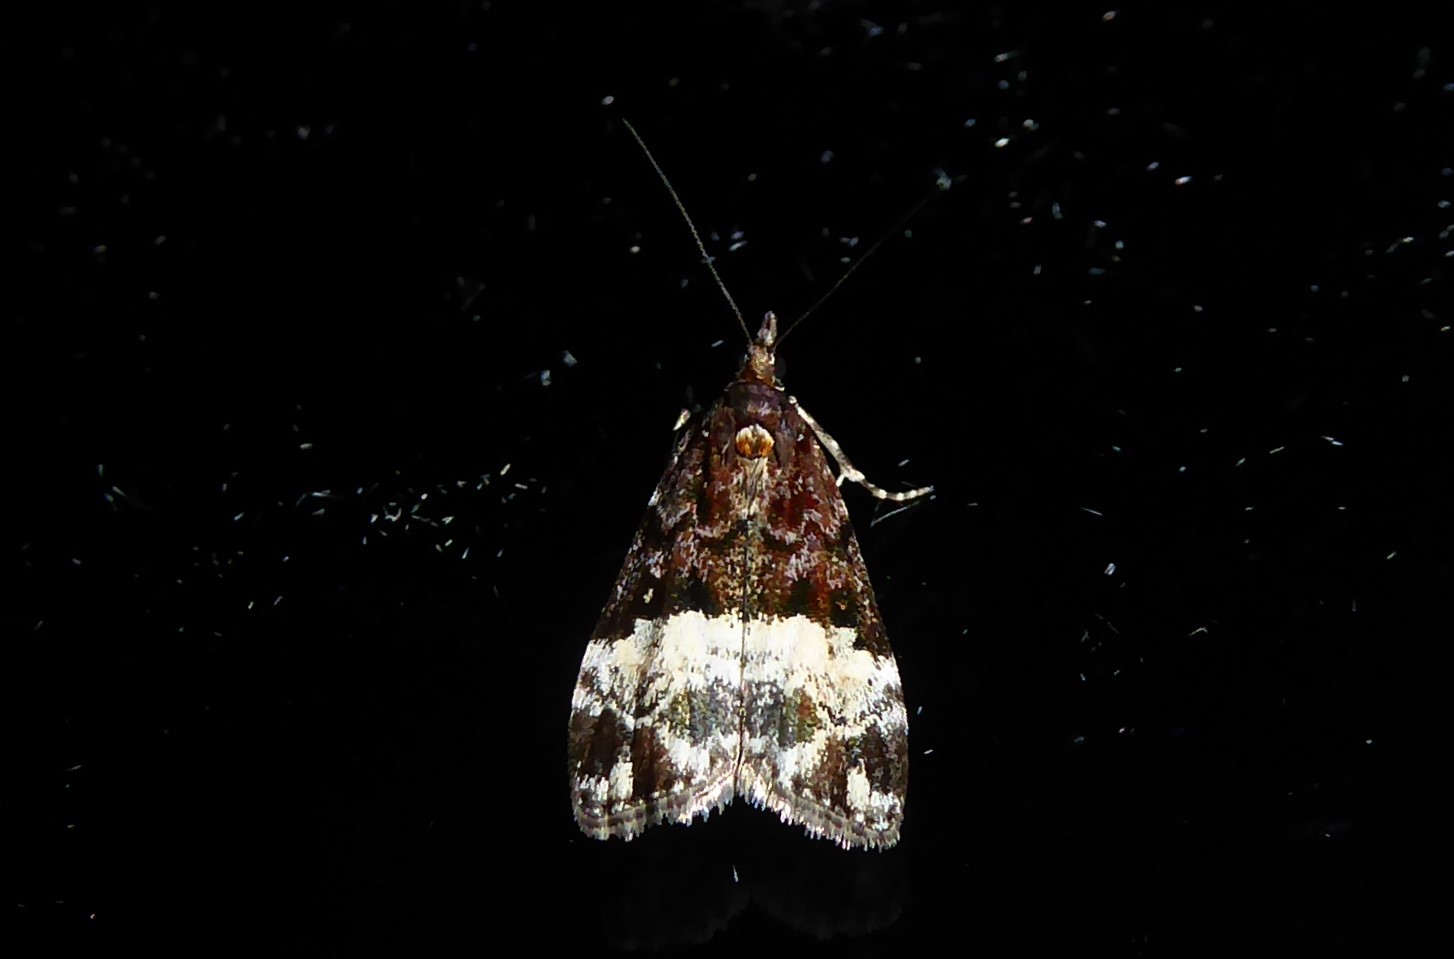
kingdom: Animalia
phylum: Arthropoda
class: Insecta
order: Lepidoptera
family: Crambidae
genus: Scoparia
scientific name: Scoparia minusculalis
